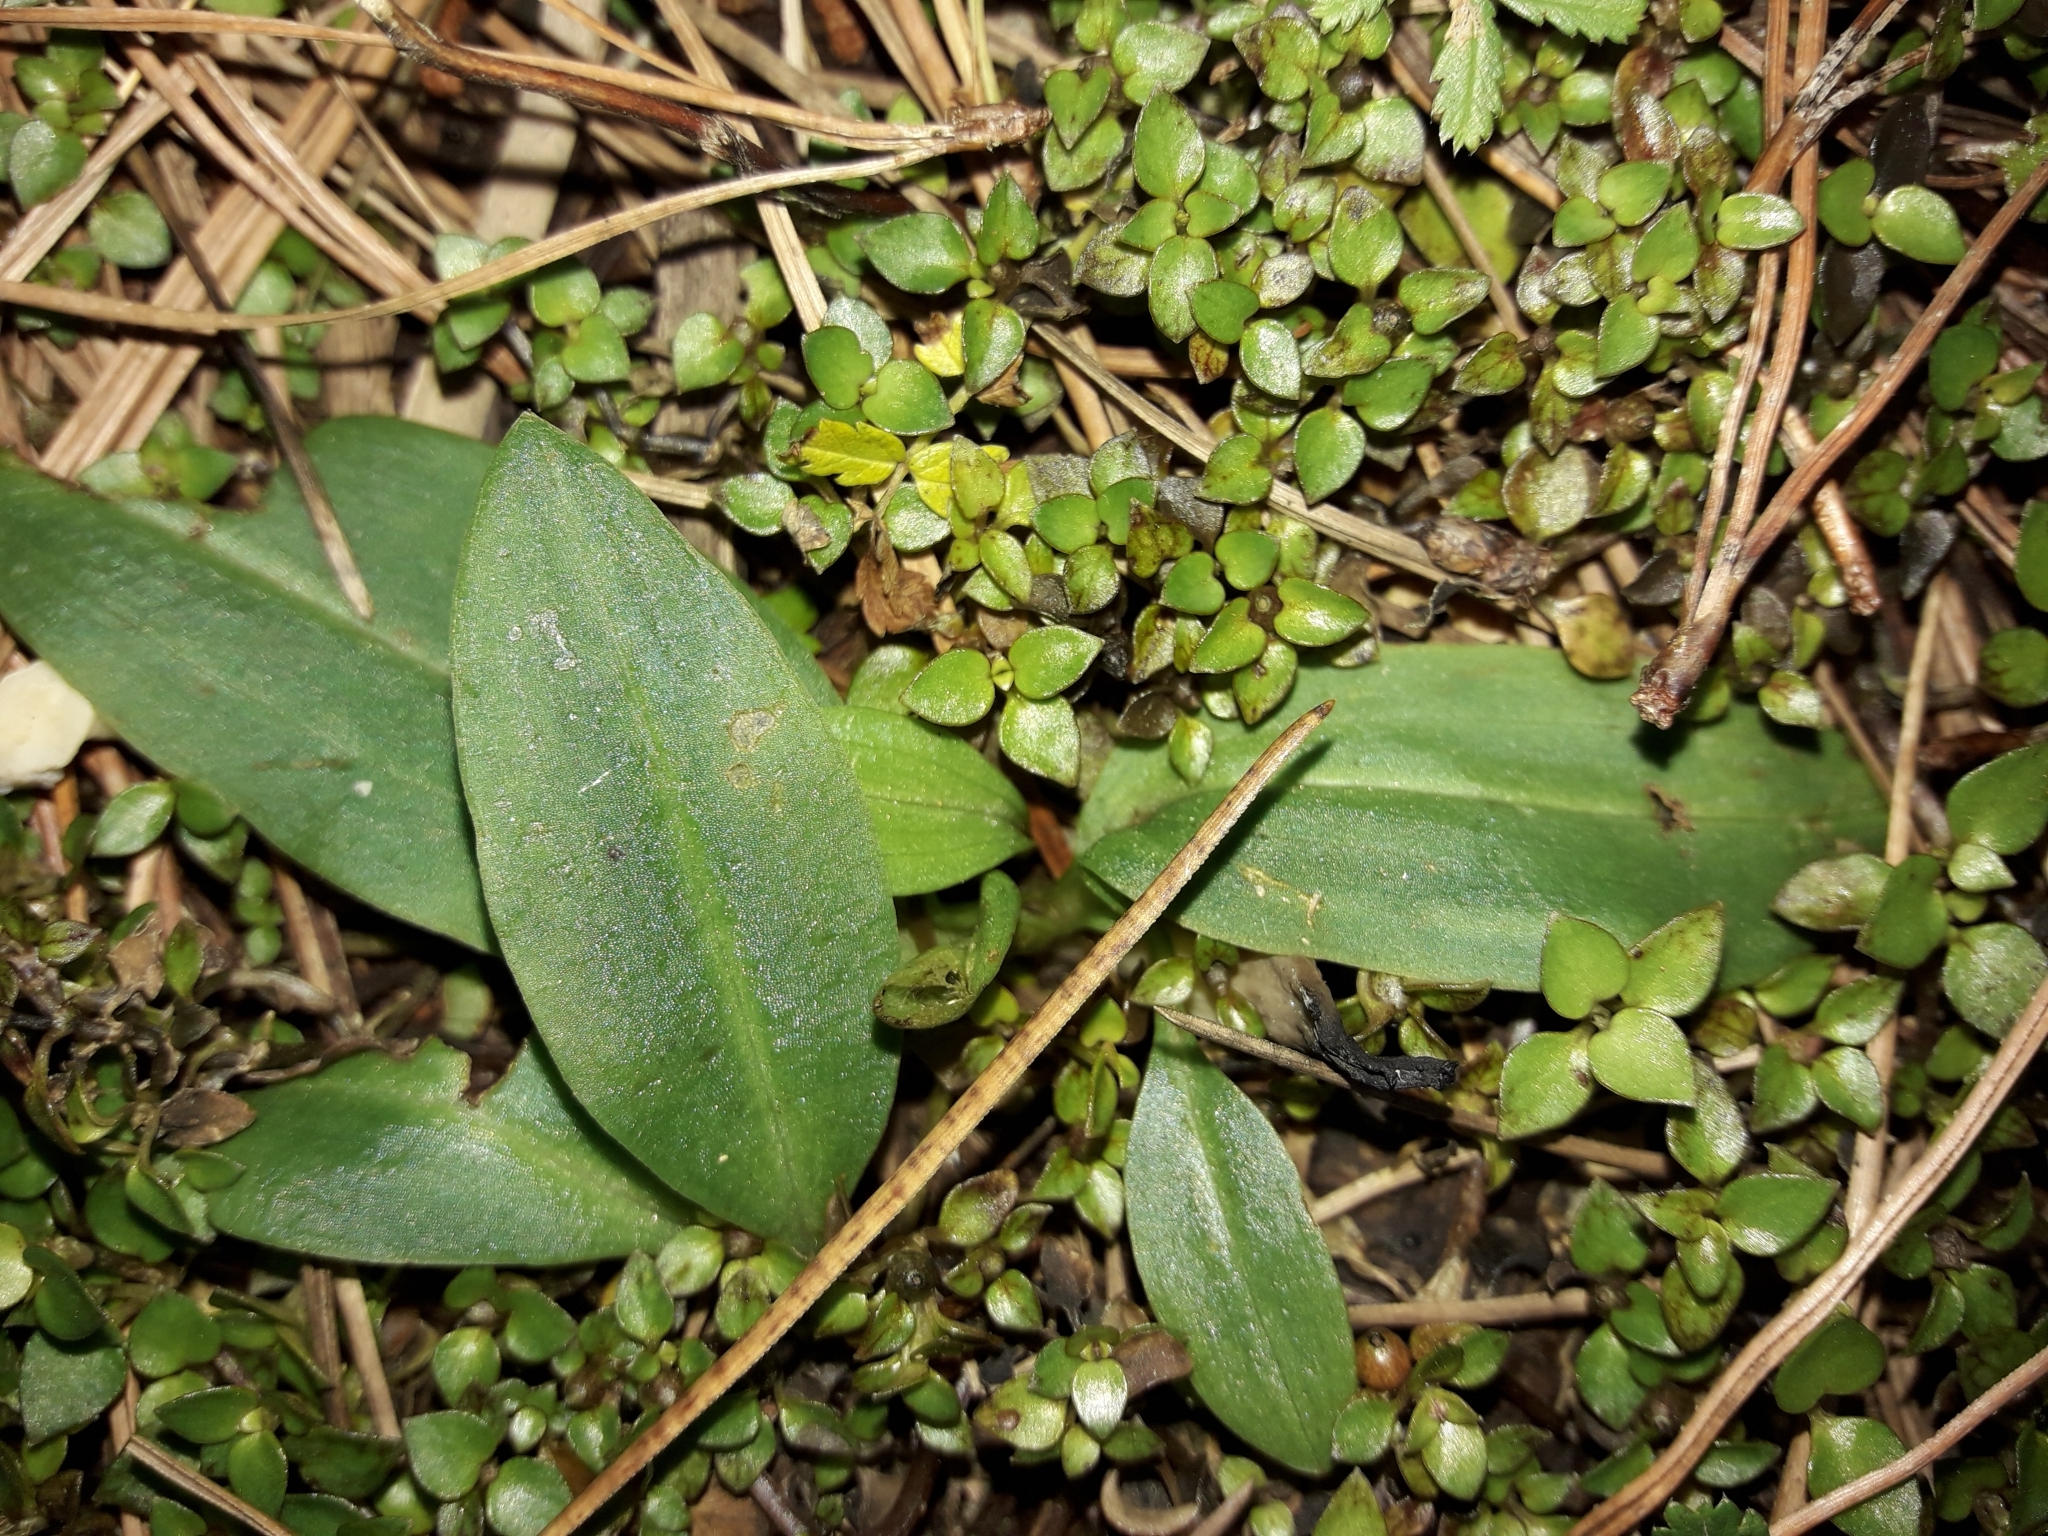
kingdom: Plantae
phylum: Tracheophyta
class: Liliopsida
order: Asparagales
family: Orchidaceae
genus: Chiloglottis
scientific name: Chiloglottis cornuta
